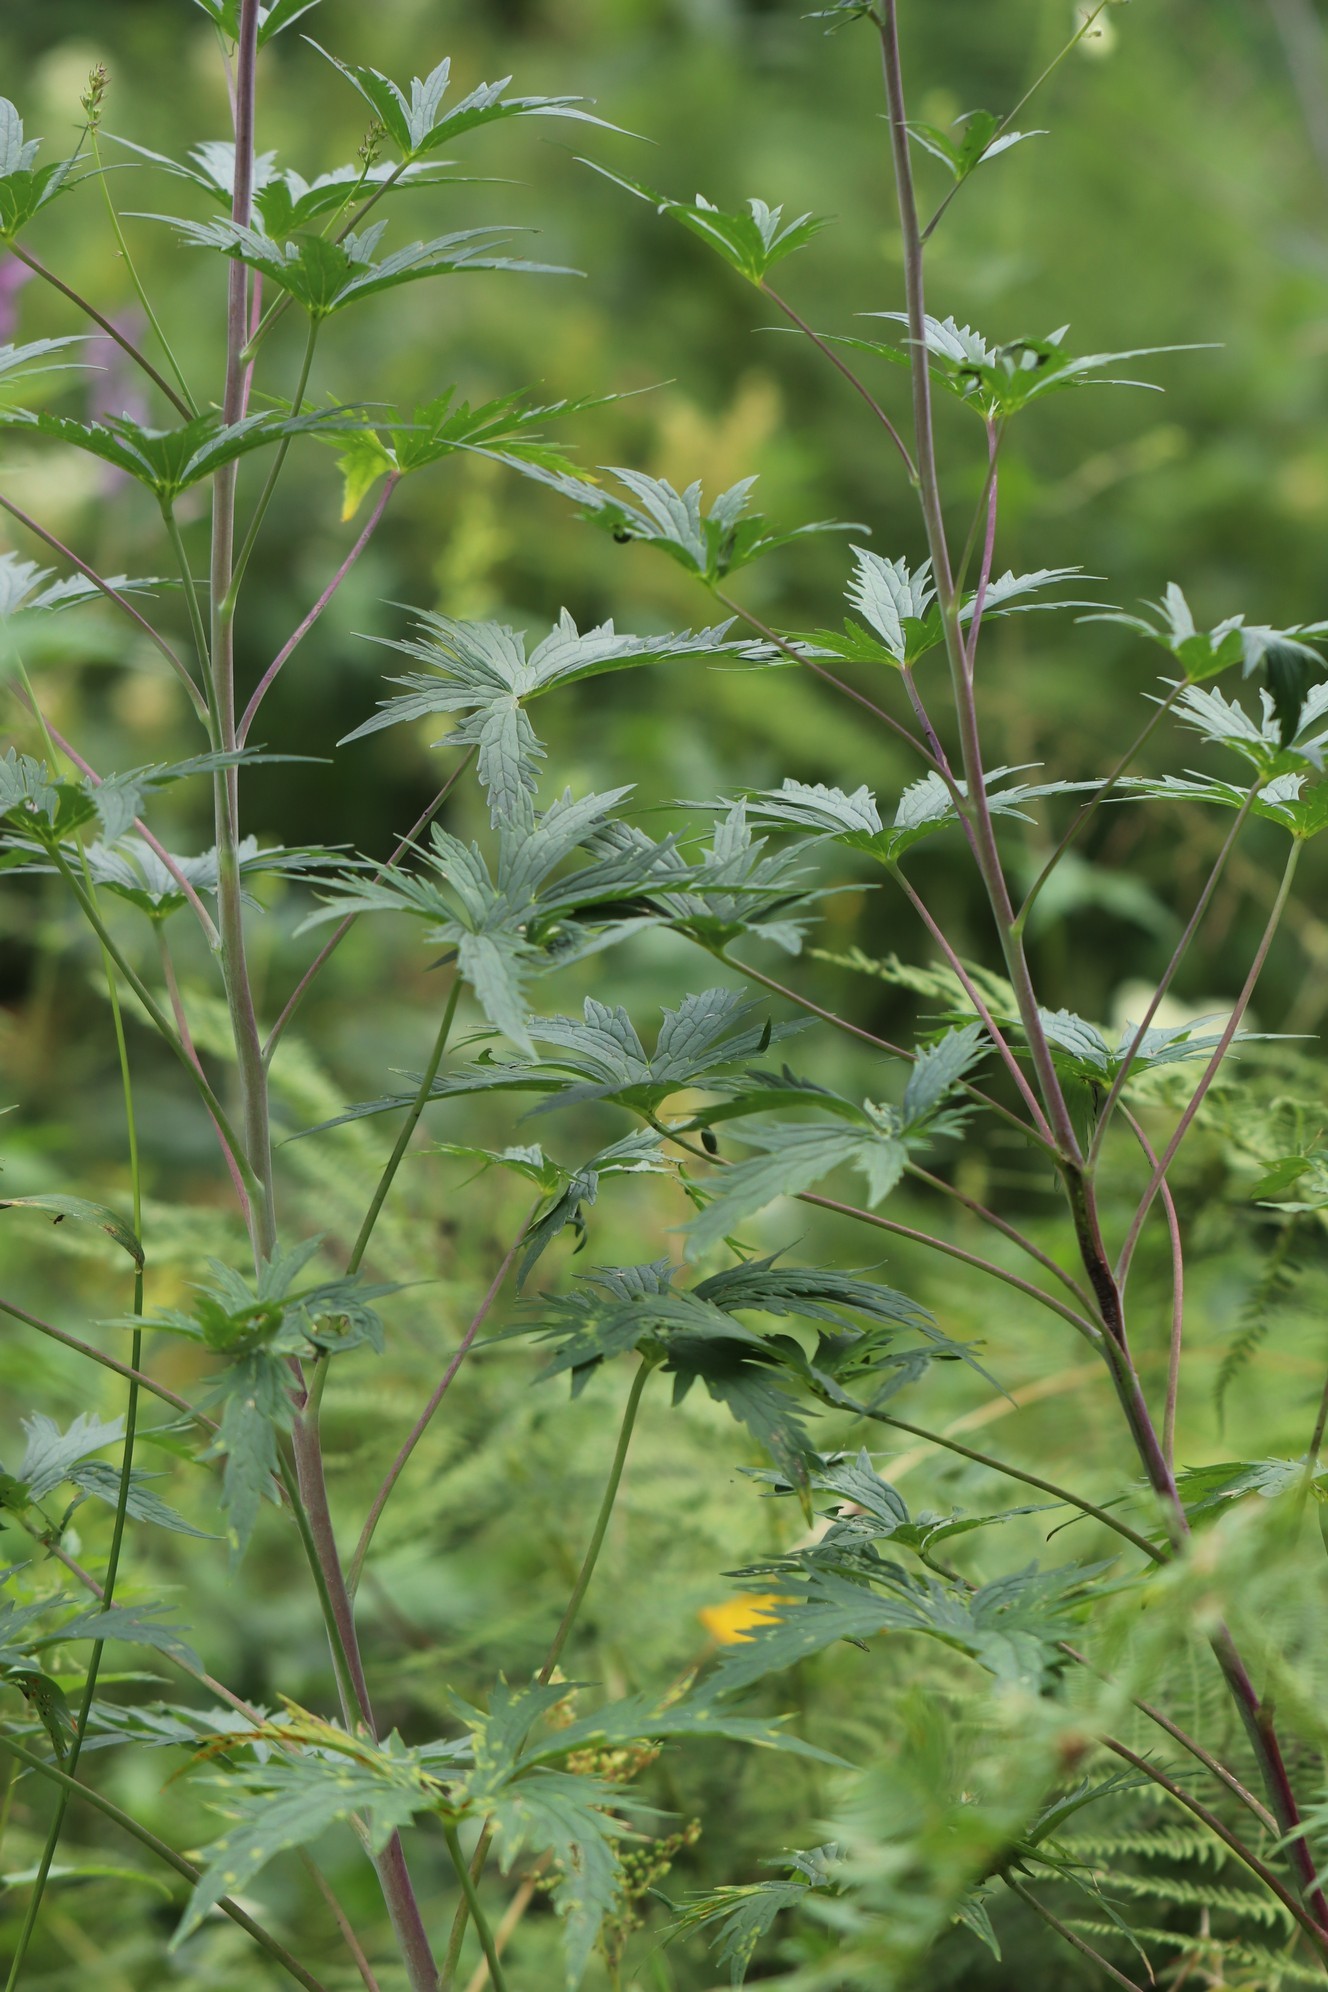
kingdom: Plantae
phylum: Tracheophyta
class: Magnoliopsida
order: Ranunculales
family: Ranunculaceae
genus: Delphinium
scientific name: Delphinium elatum
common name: Candle larkspur
